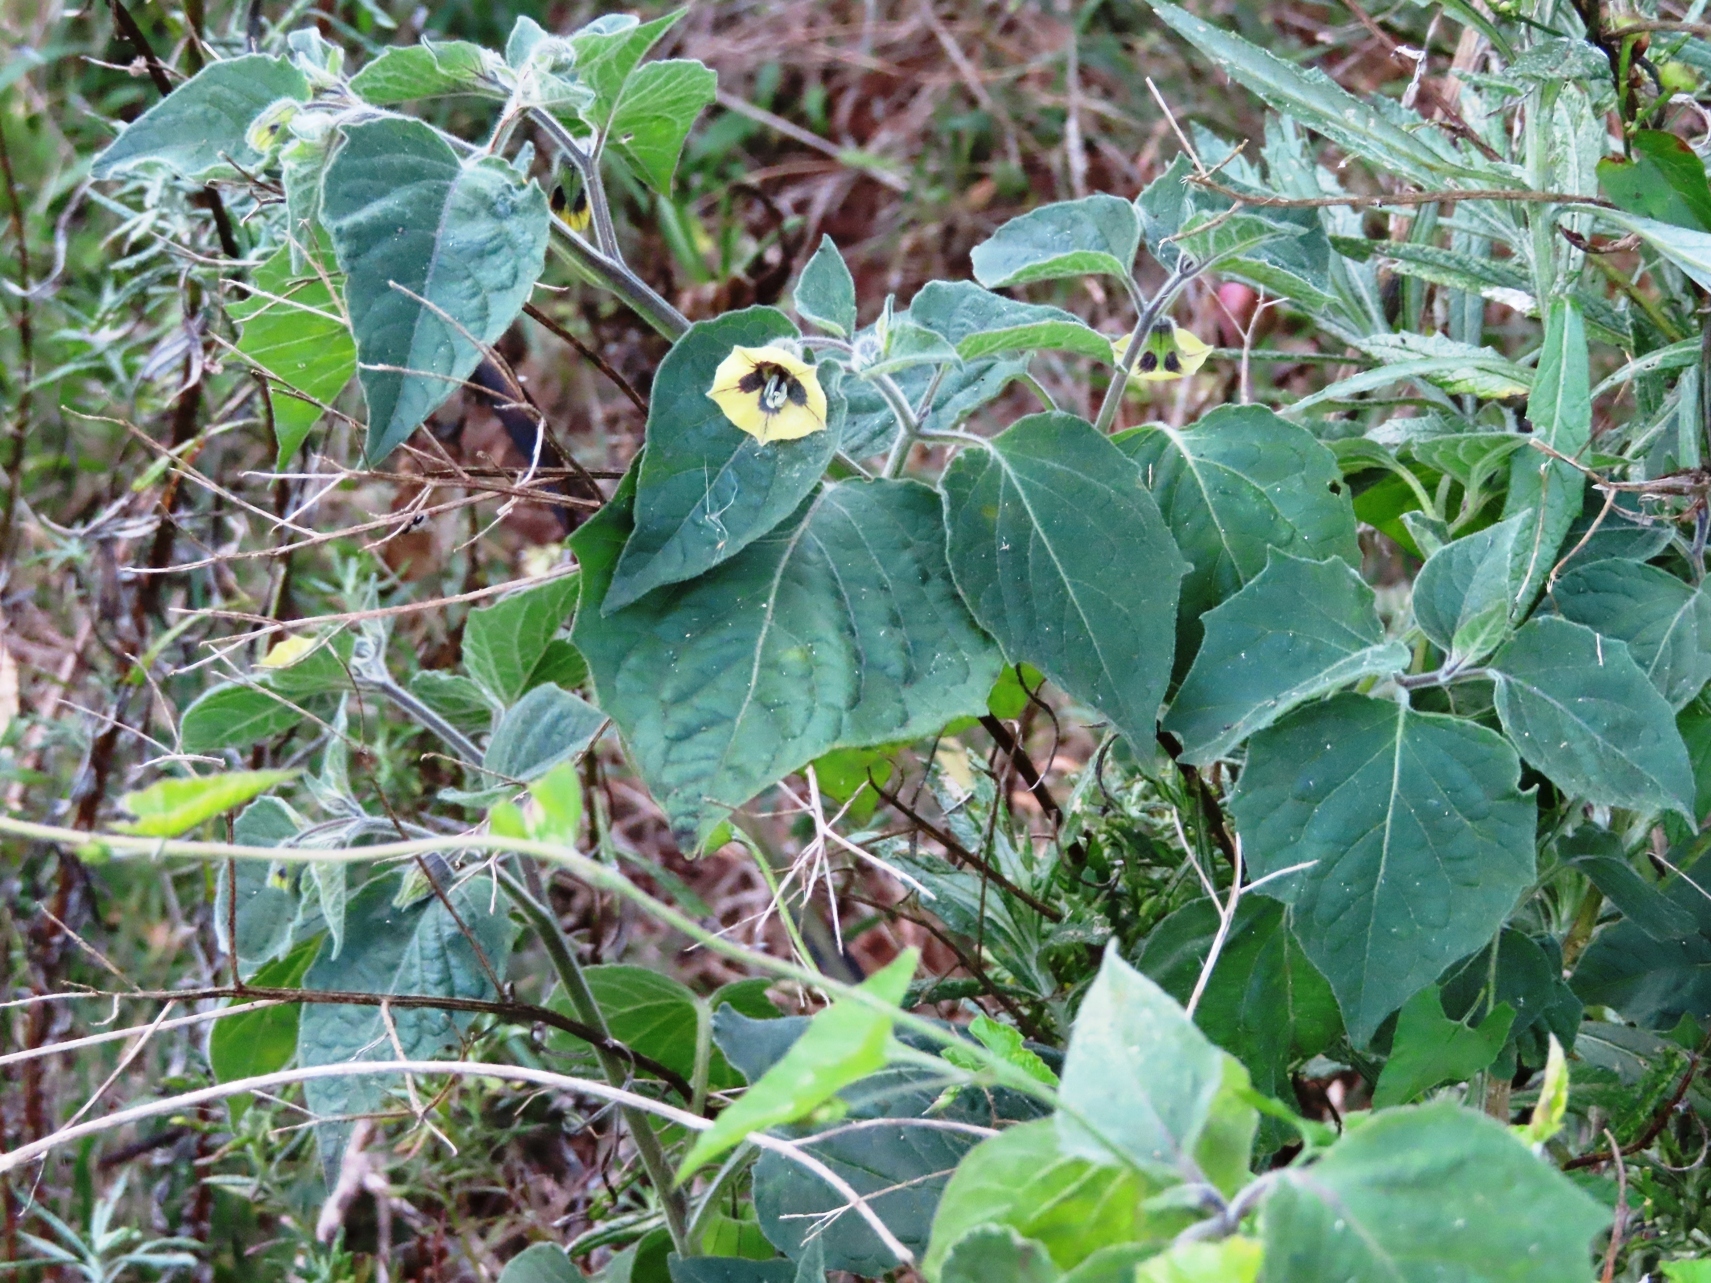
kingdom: Plantae
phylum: Tracheophyta
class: Magnoliopsida
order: Solanales
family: Solanaceae
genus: Physalis
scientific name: Physalis peruviana
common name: Cape-gooseberry
